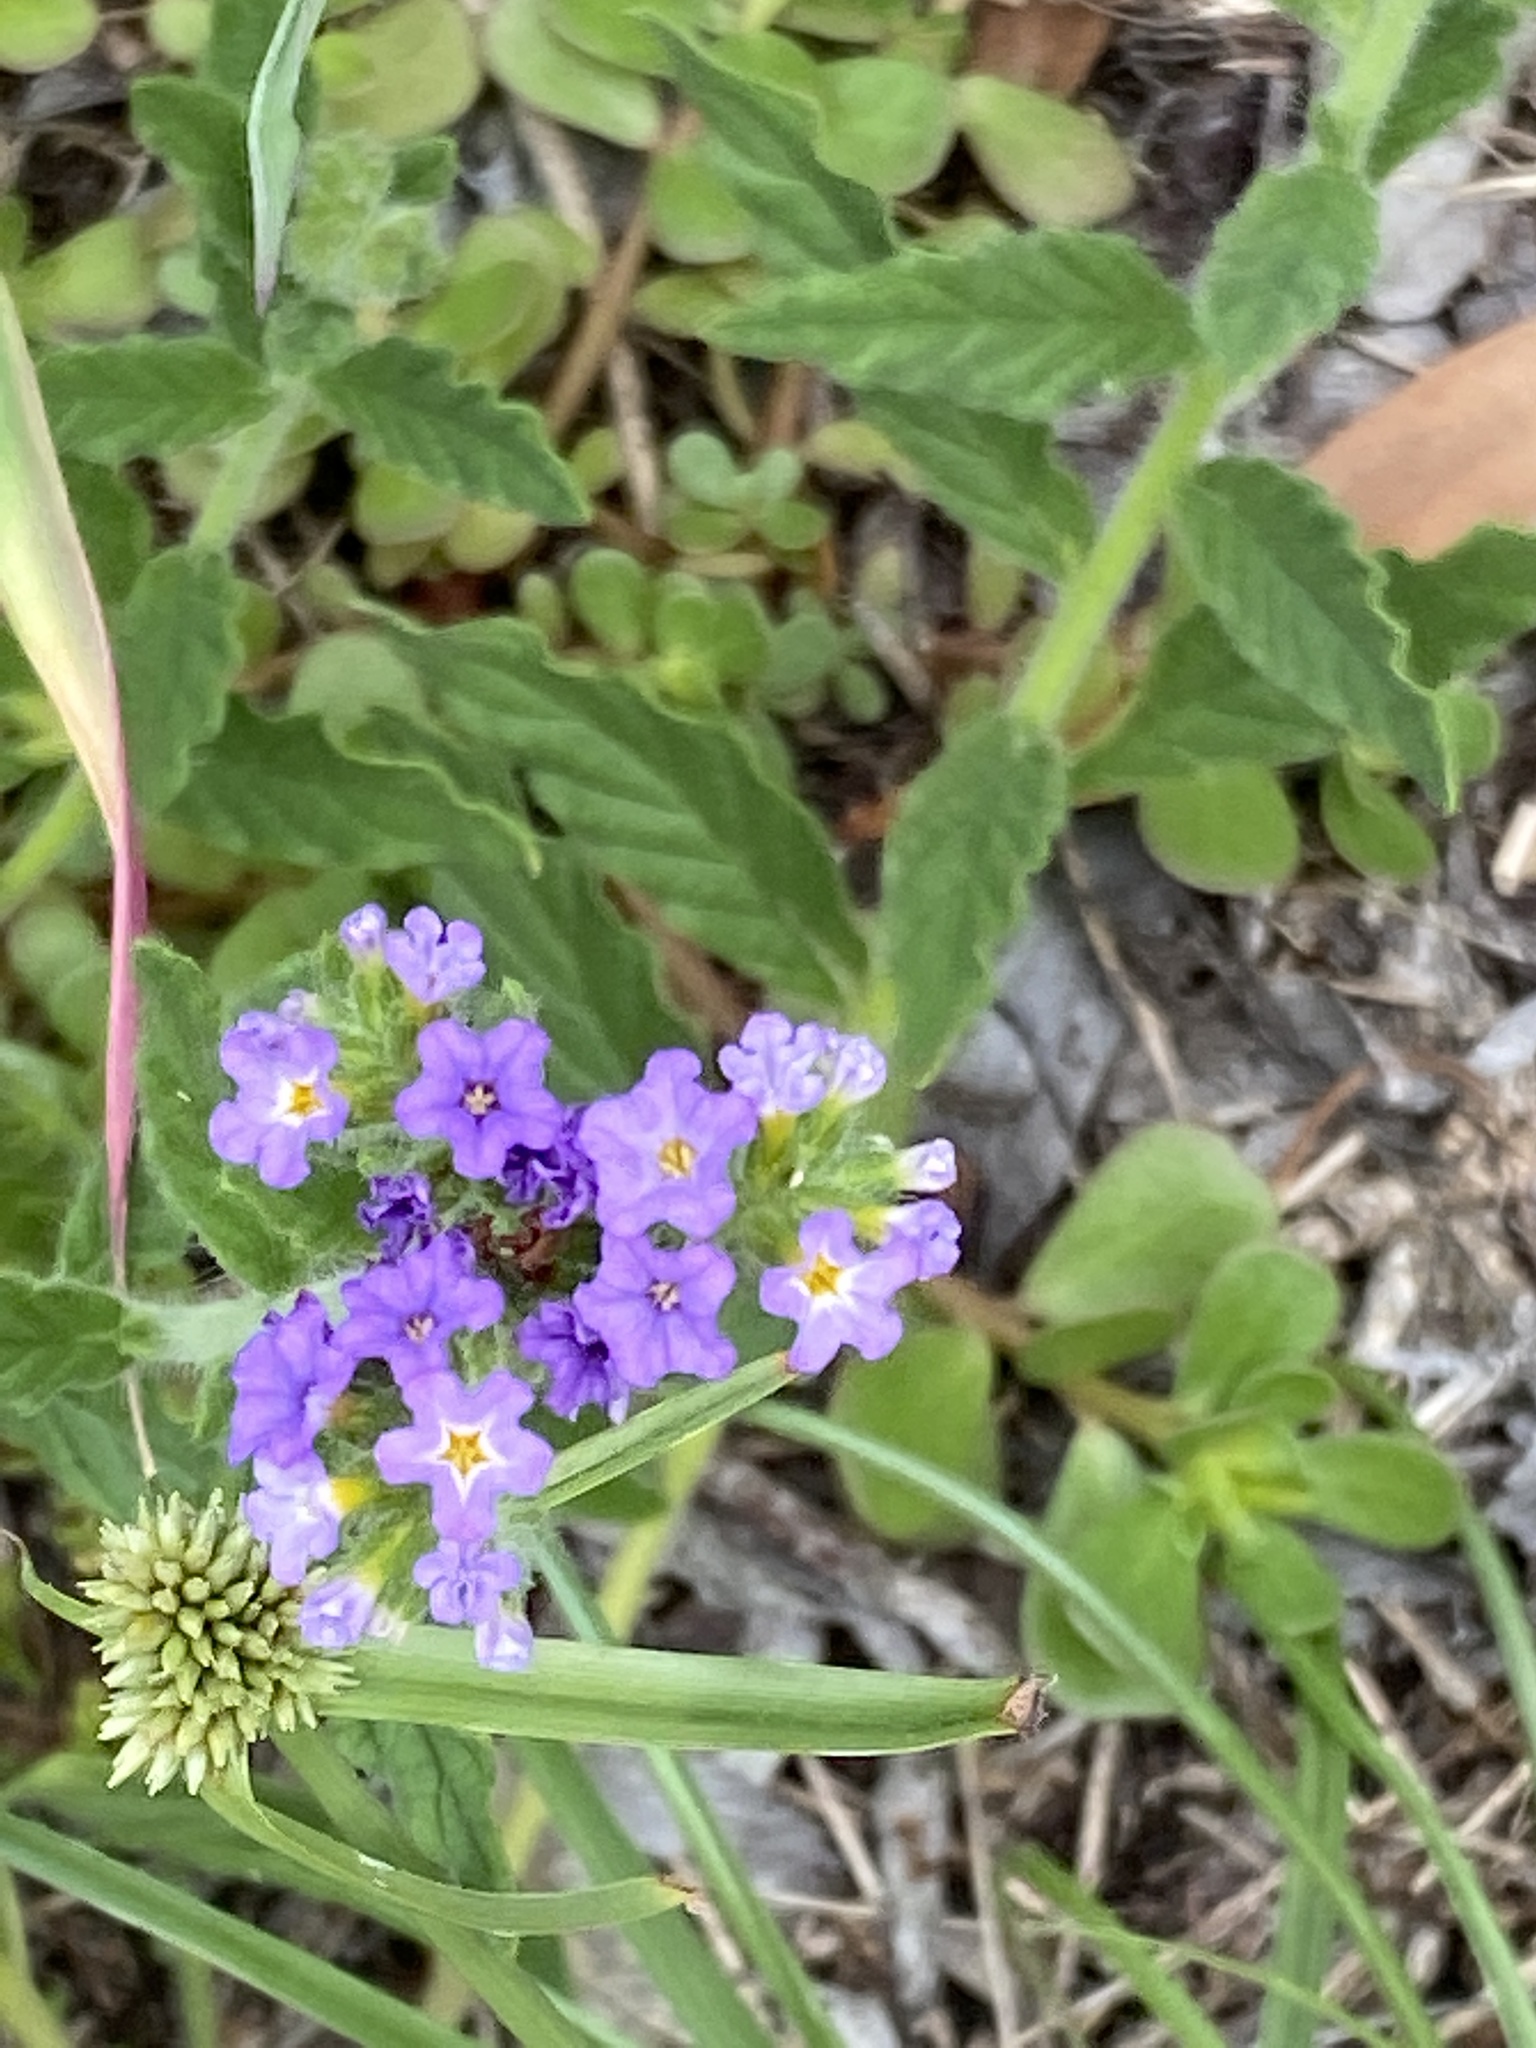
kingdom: Plantae
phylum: Tracheophyta
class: Magnoliopsida
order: Boraginales
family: Heliotropiaceae
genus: Heliotropium
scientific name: Heliotropium amplexicaule
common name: Clasping heliotrope
